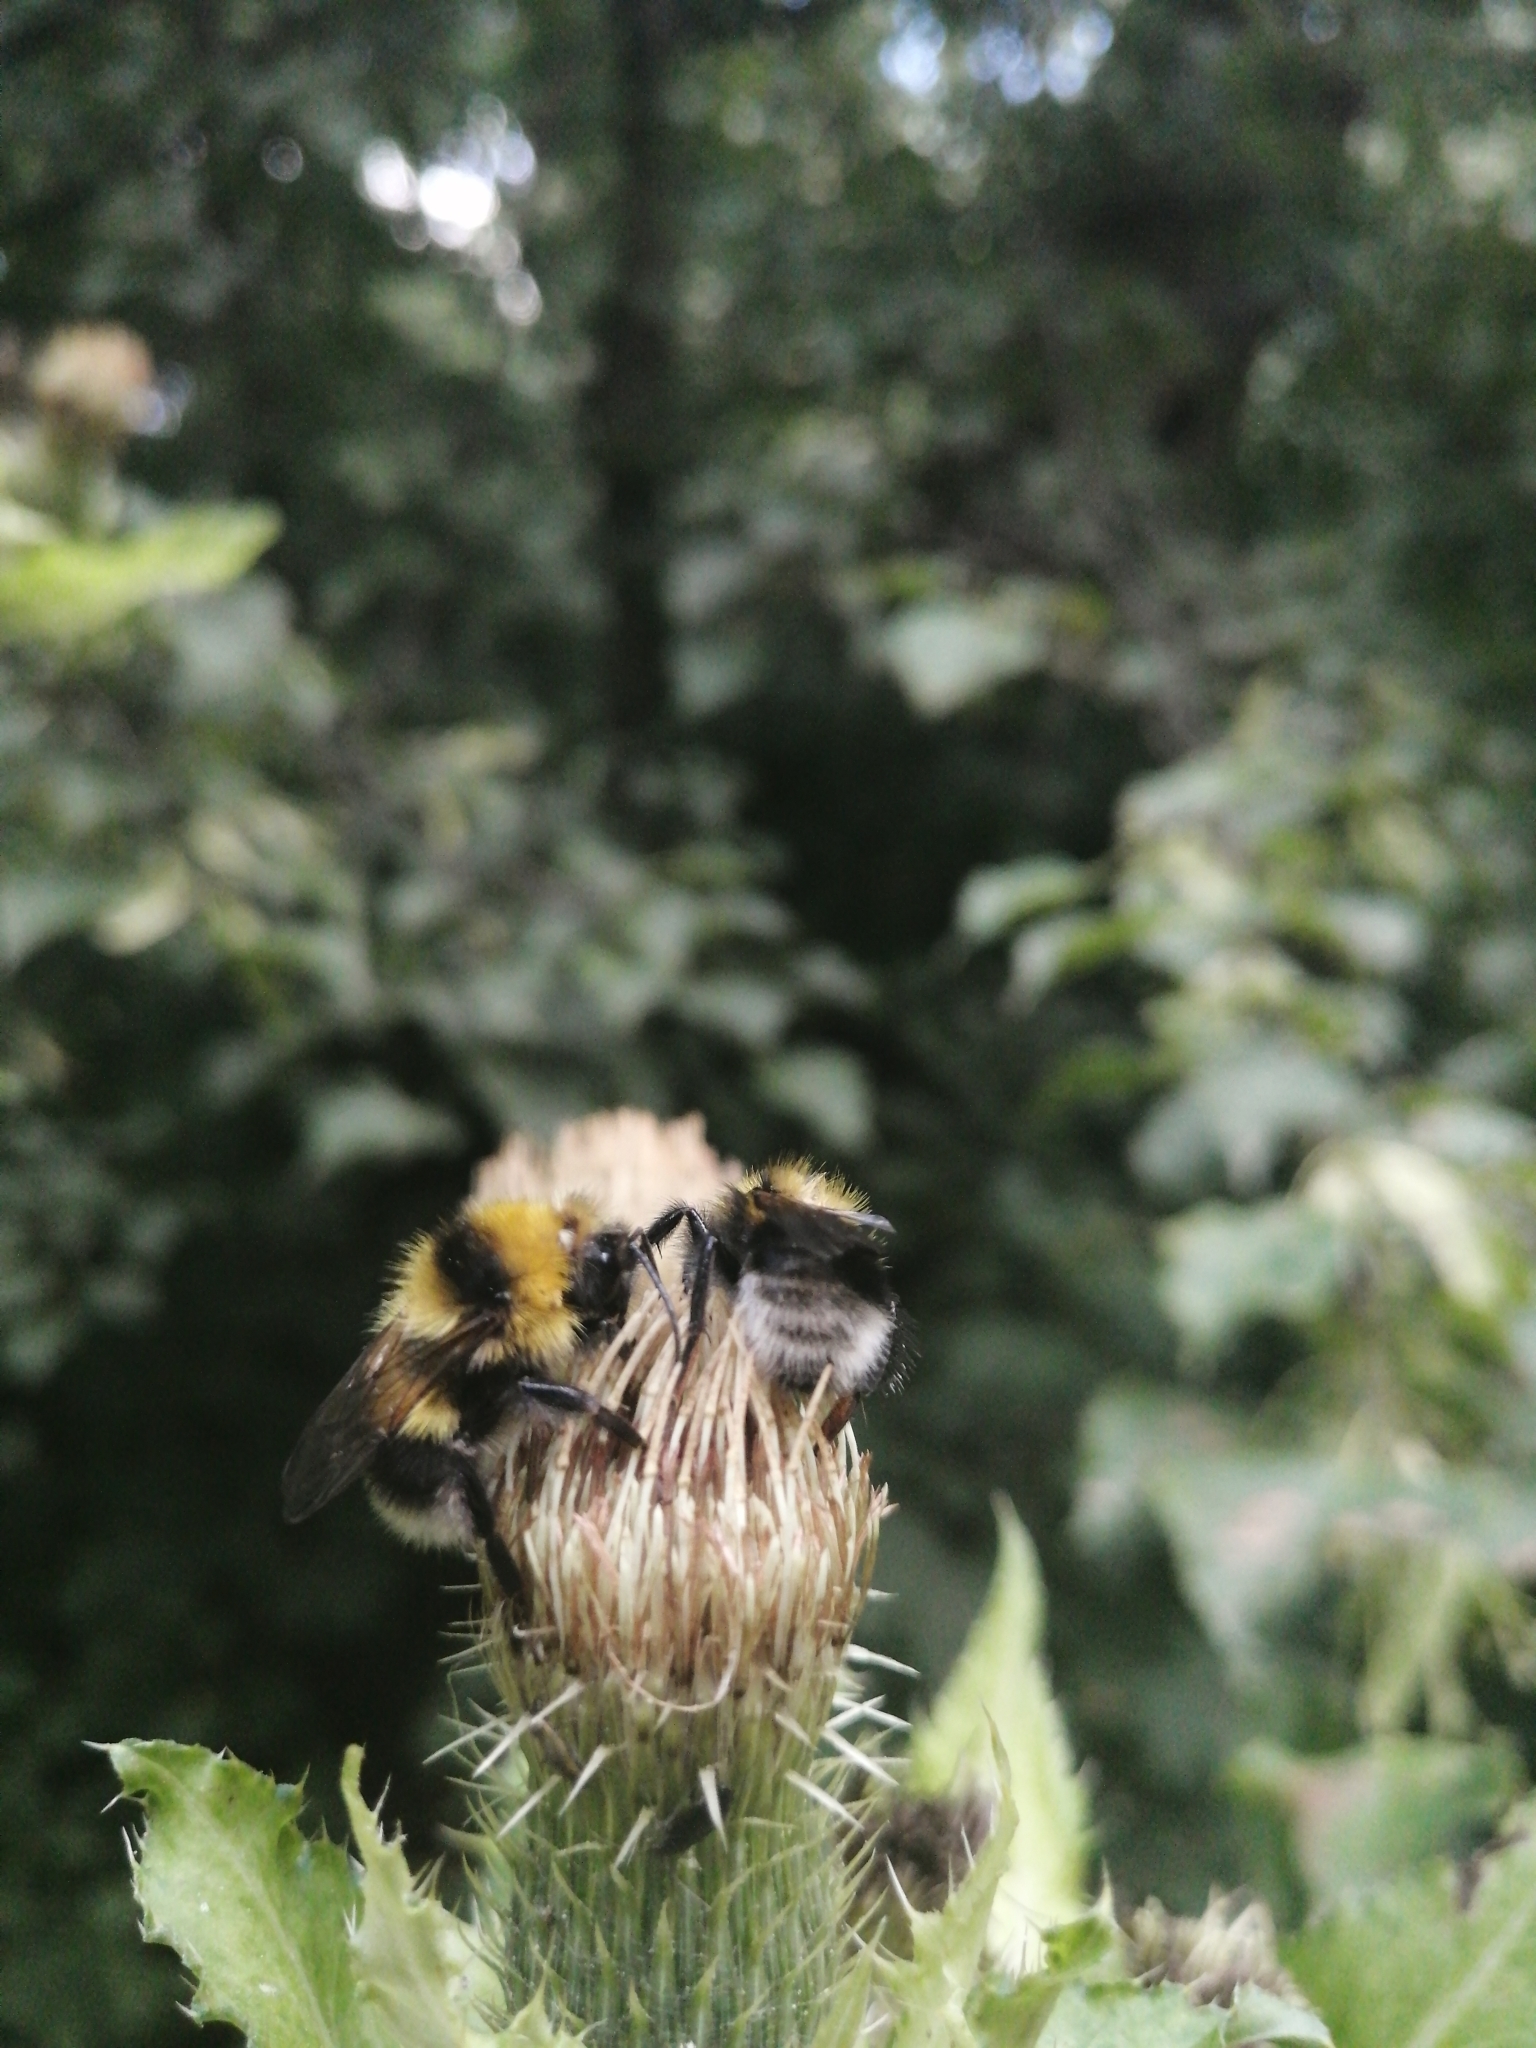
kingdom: Animalia
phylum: Arthropoda
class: Insecta
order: Hymenoptera
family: Apidae
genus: Bombus
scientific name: Bombus hortorum
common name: Garden bumblebee
